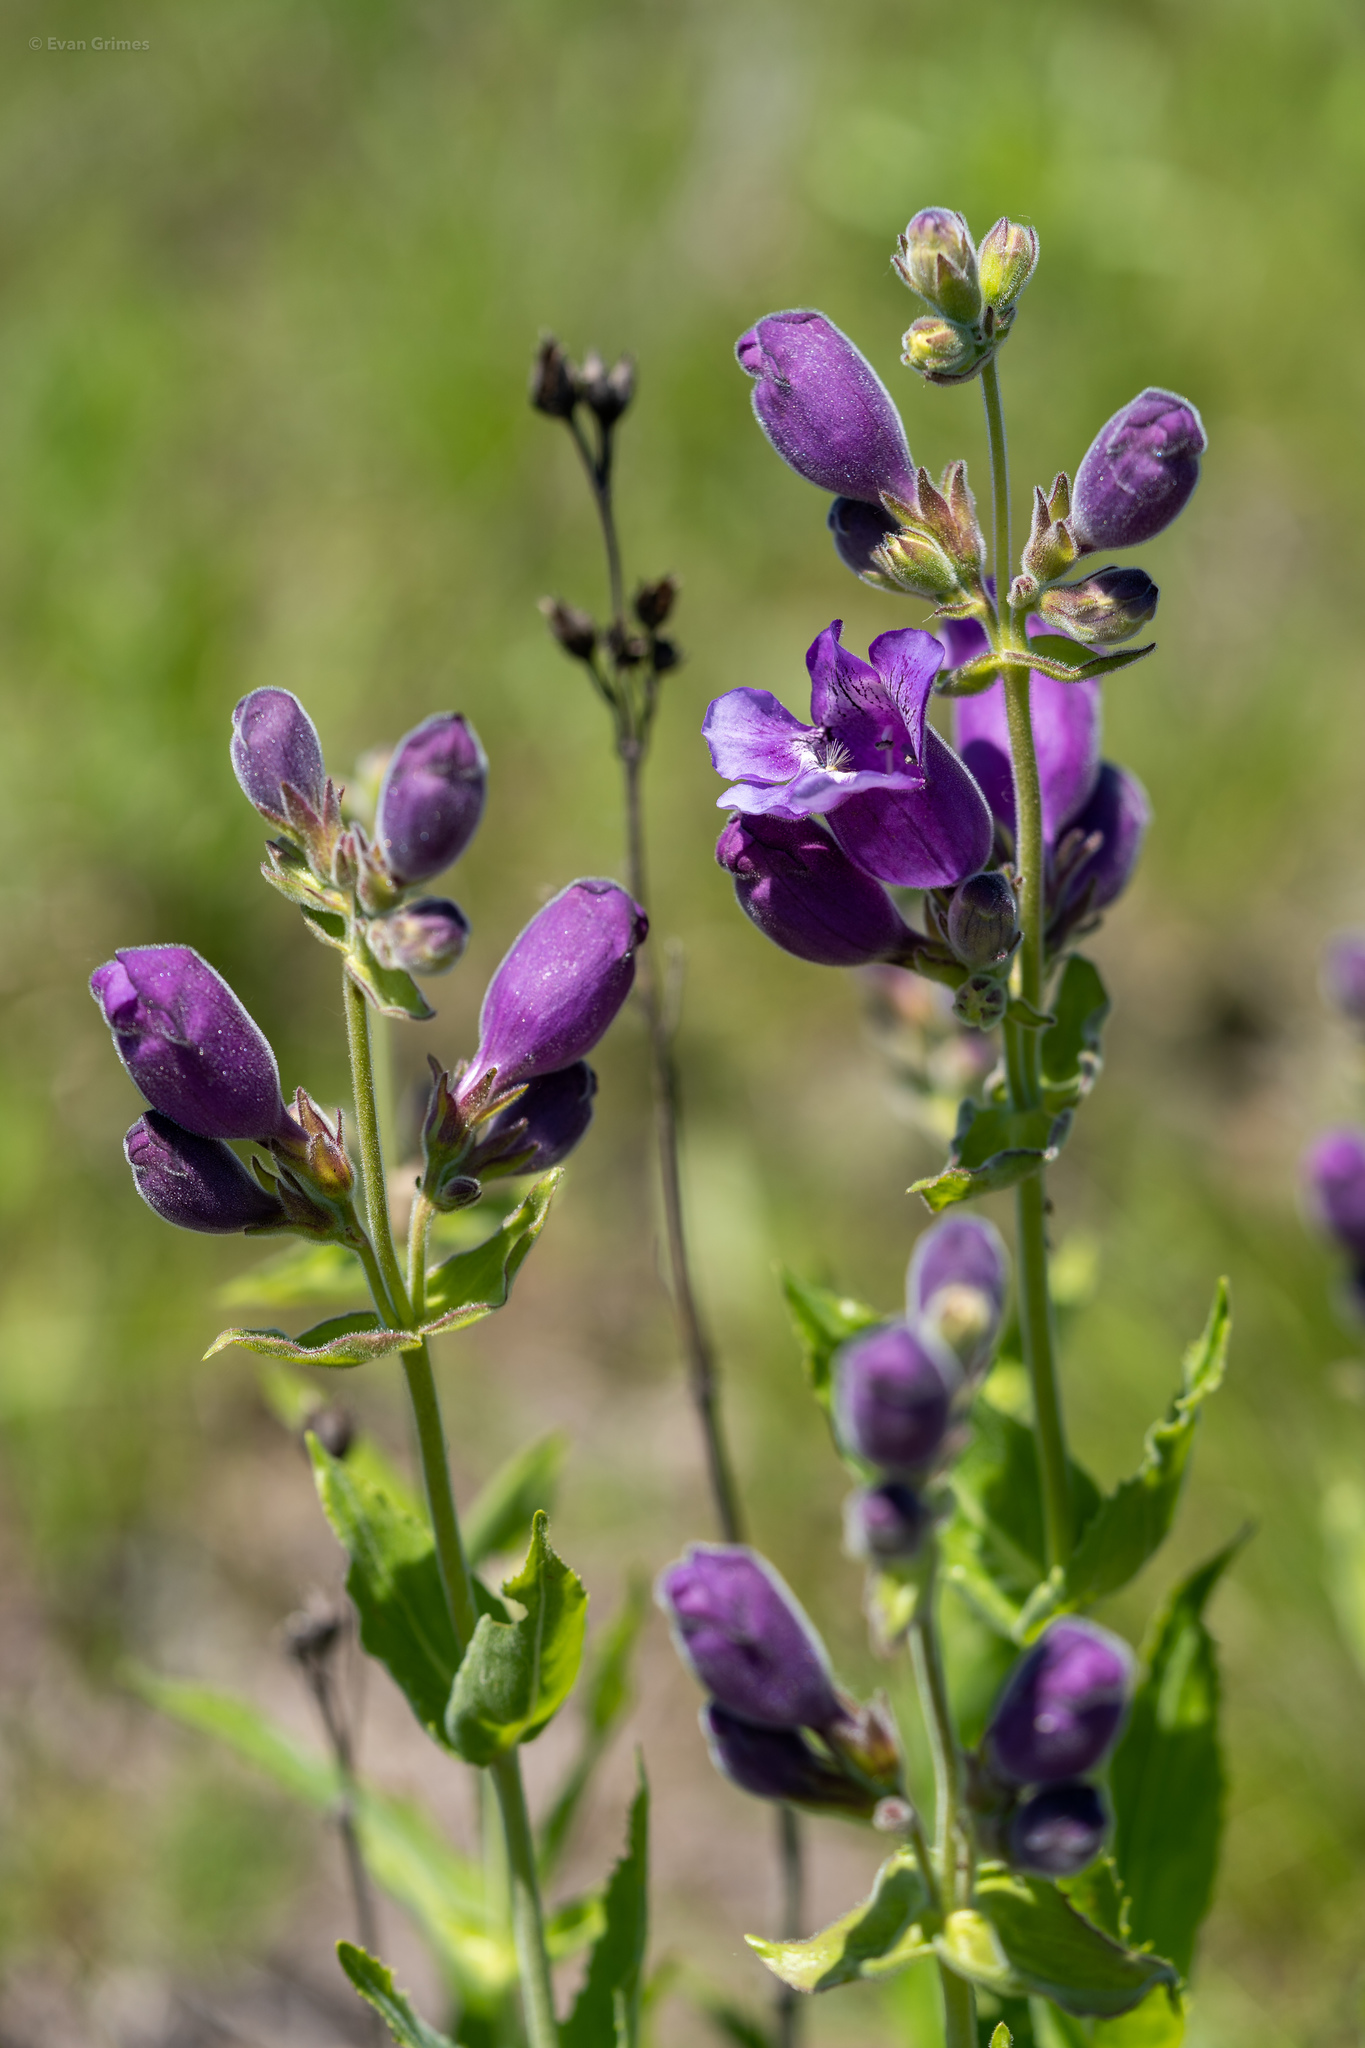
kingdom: Plantae
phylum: Tracheophyta
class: Magnoliopsida
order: Lamiales
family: Plantaginaceae
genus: Penstemon
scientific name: Penstemon cobaea
